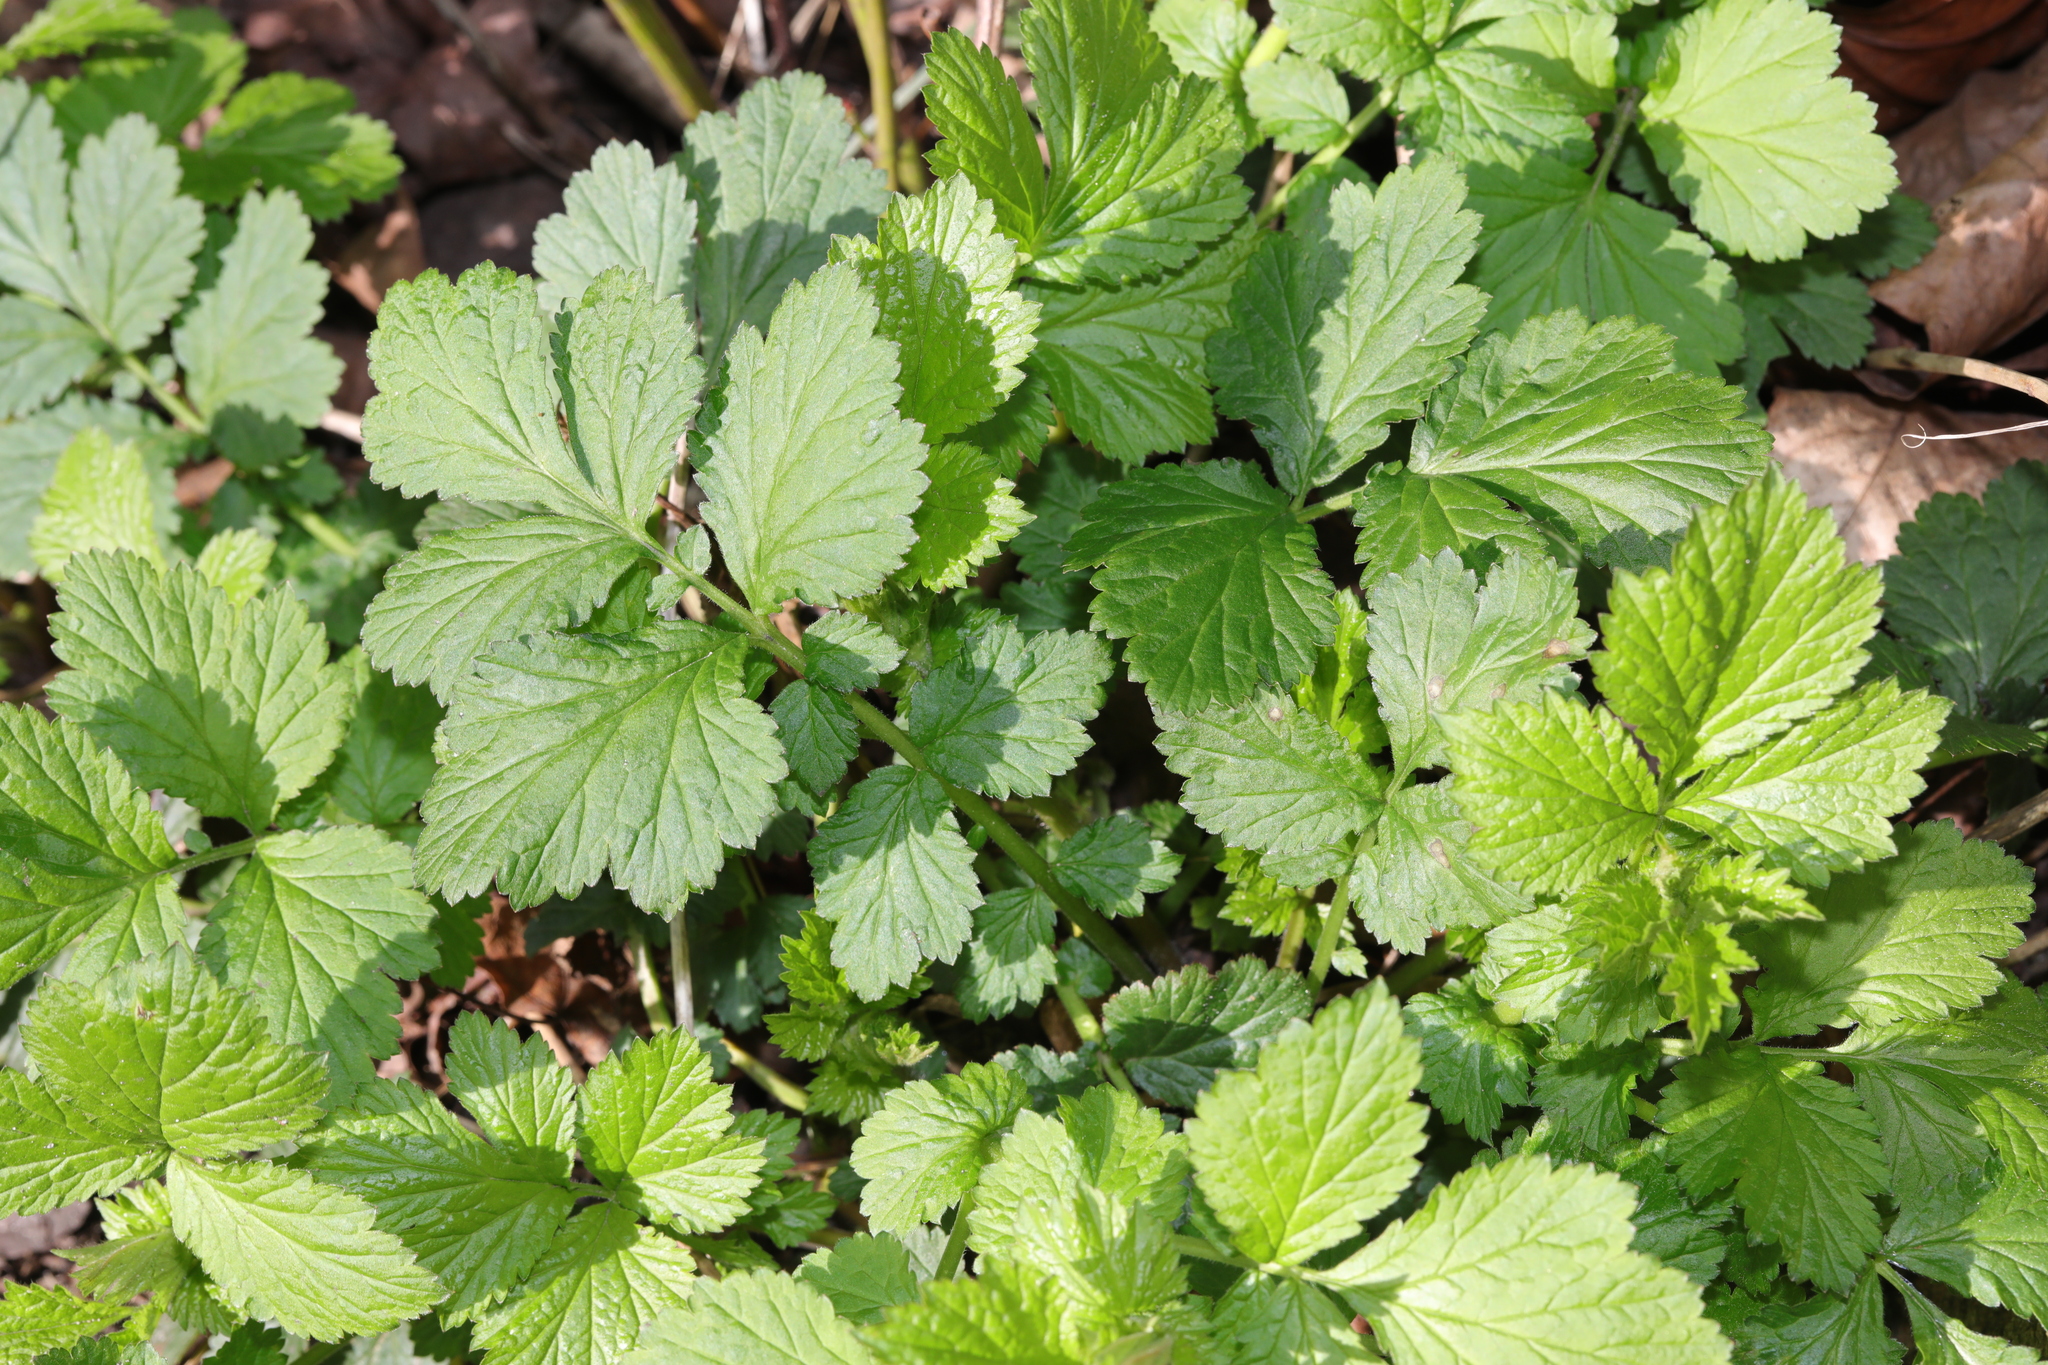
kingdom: Plantae
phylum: Tracheophyta
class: Magnoliopsida
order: Rosales
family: Rosaceae
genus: Geum
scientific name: Geum urbanum
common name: Wood avens
